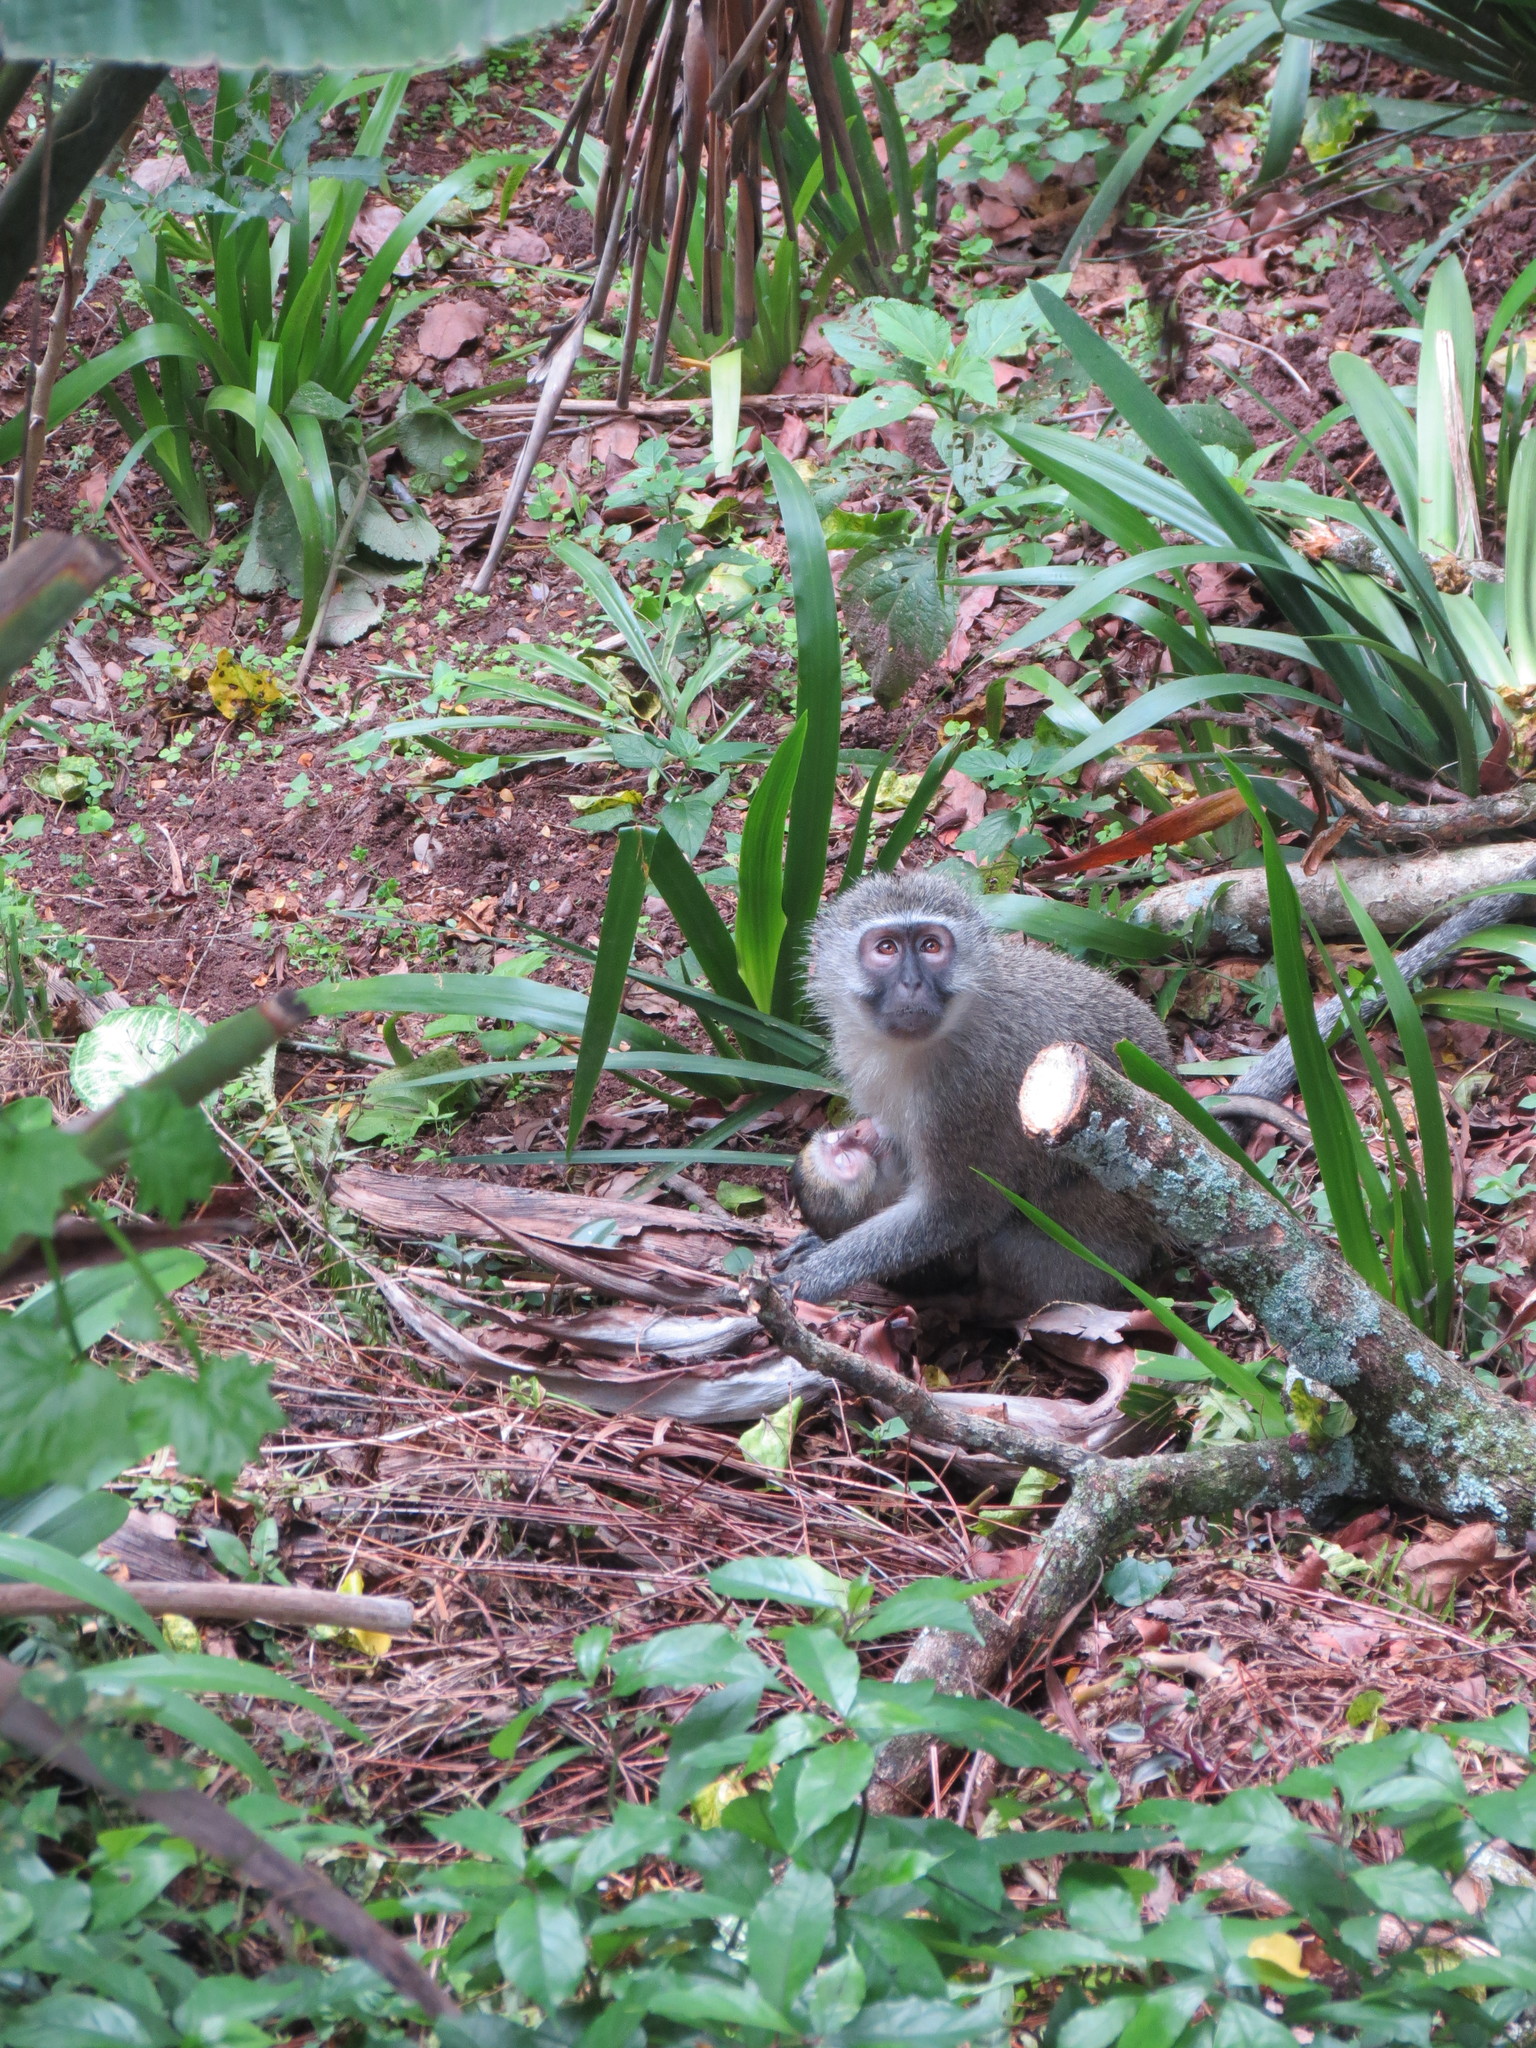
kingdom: Animalia
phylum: Chordata
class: Mammalia
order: Primates
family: Cercopithecidae
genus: Chlorocebus
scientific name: Chlorocebus pygerythrus
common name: Vervet monkey
